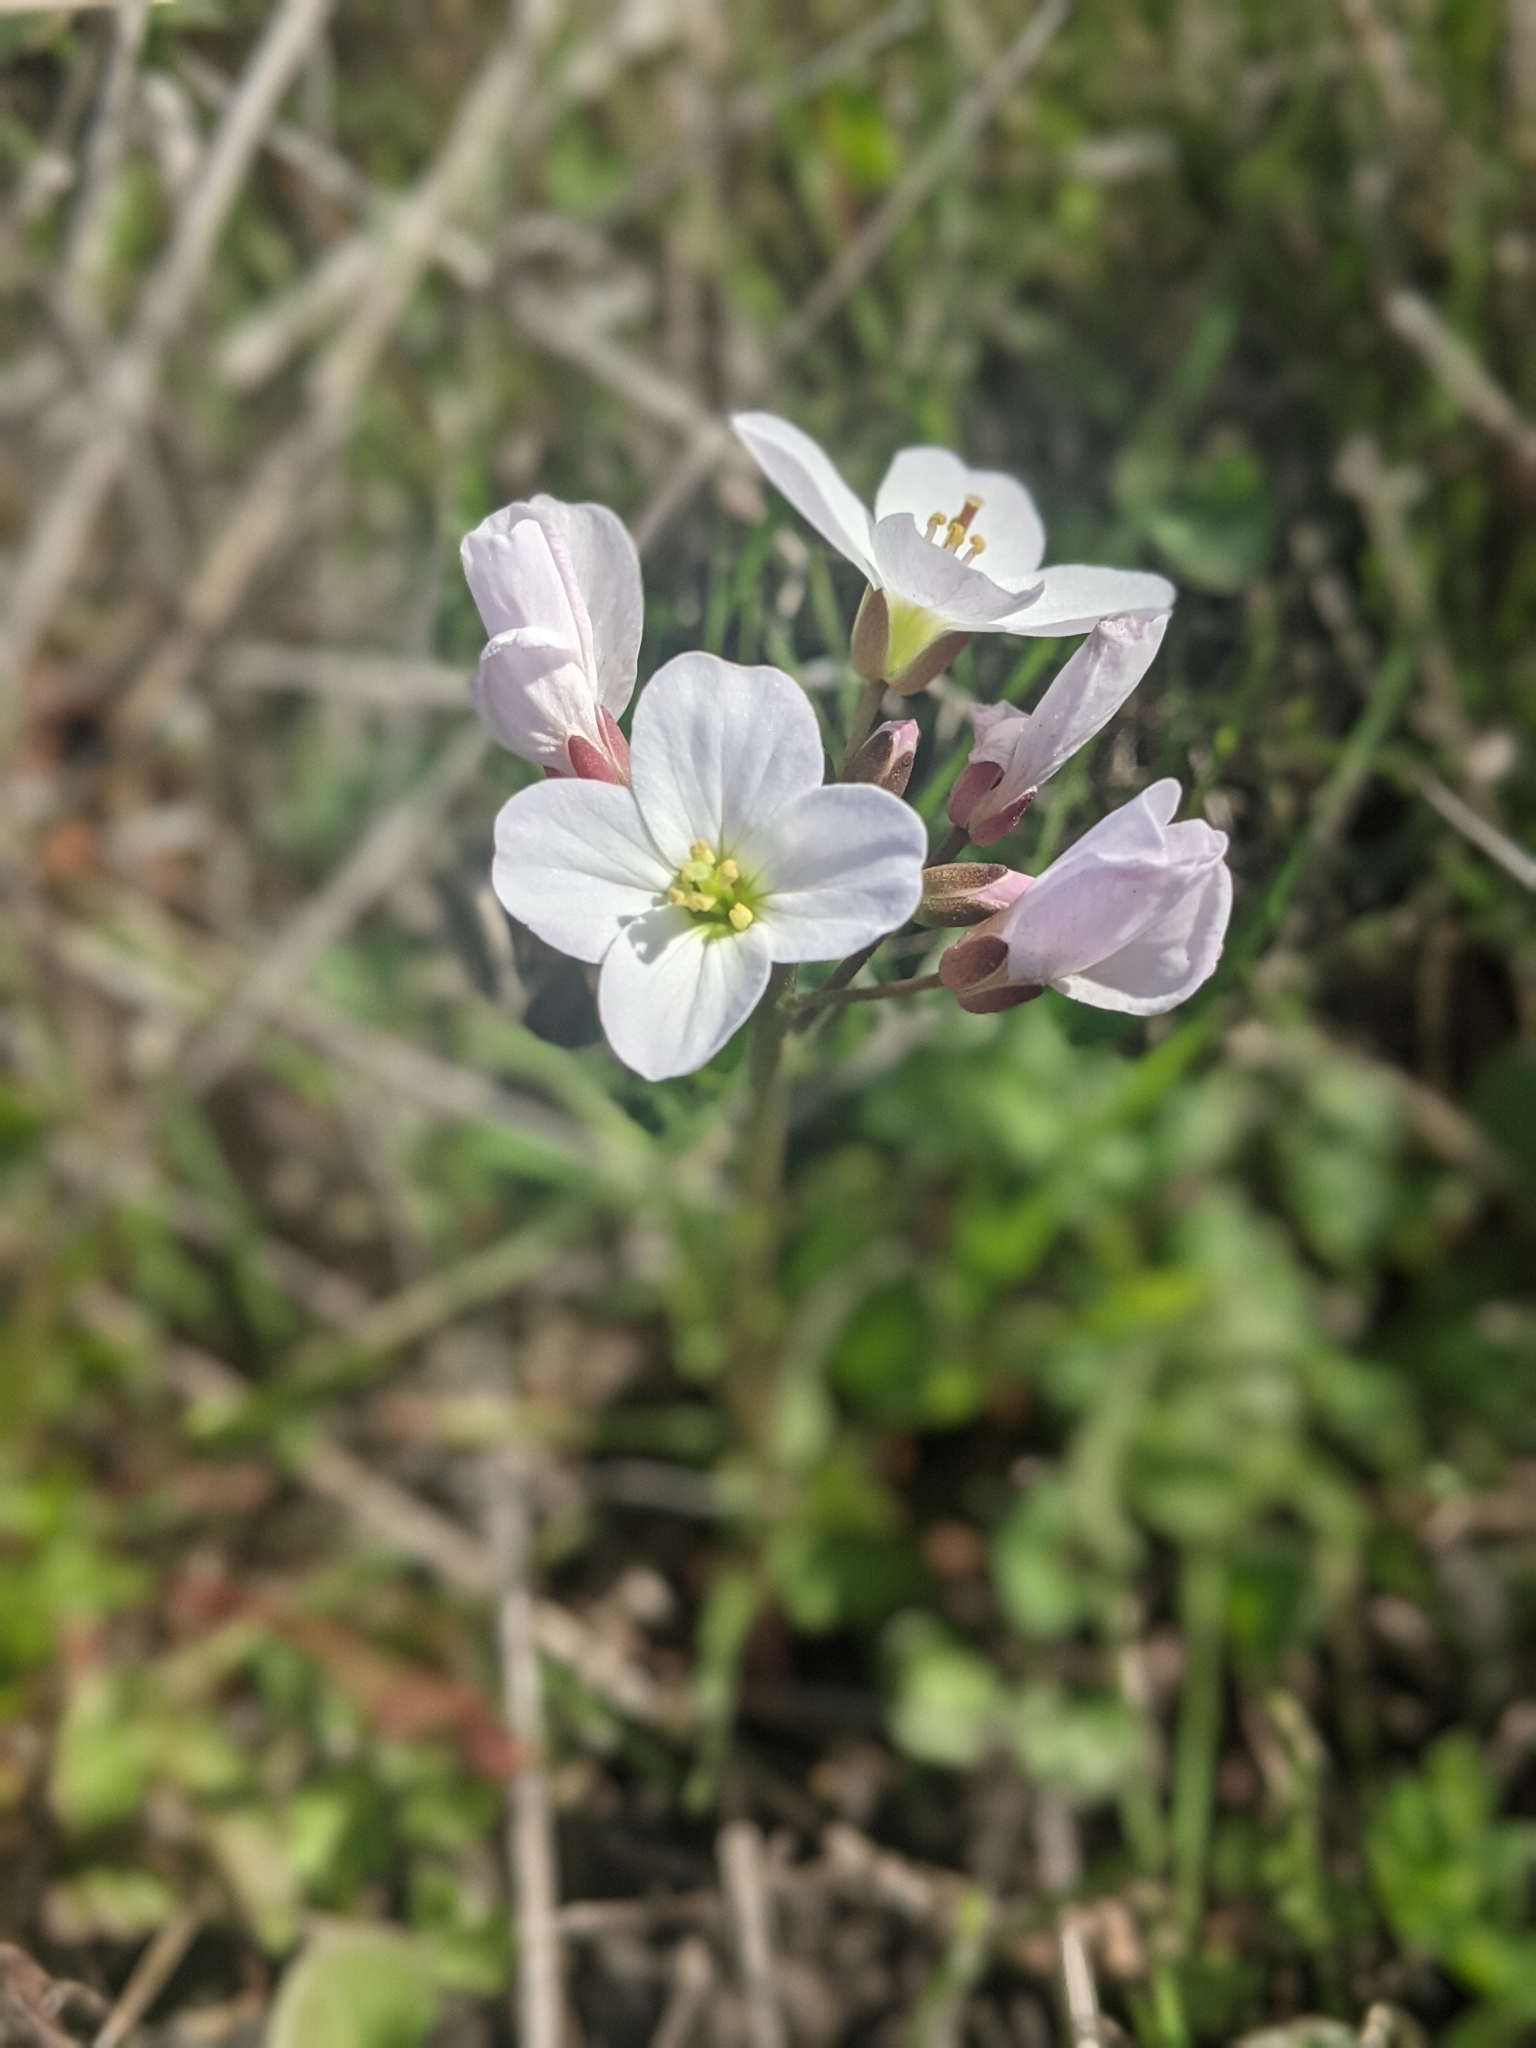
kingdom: Plantae
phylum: Tracheophyta
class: Magnoliopsida
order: Brassicales
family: Brassicaceae
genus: Cardamine
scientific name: Cardamine californica
